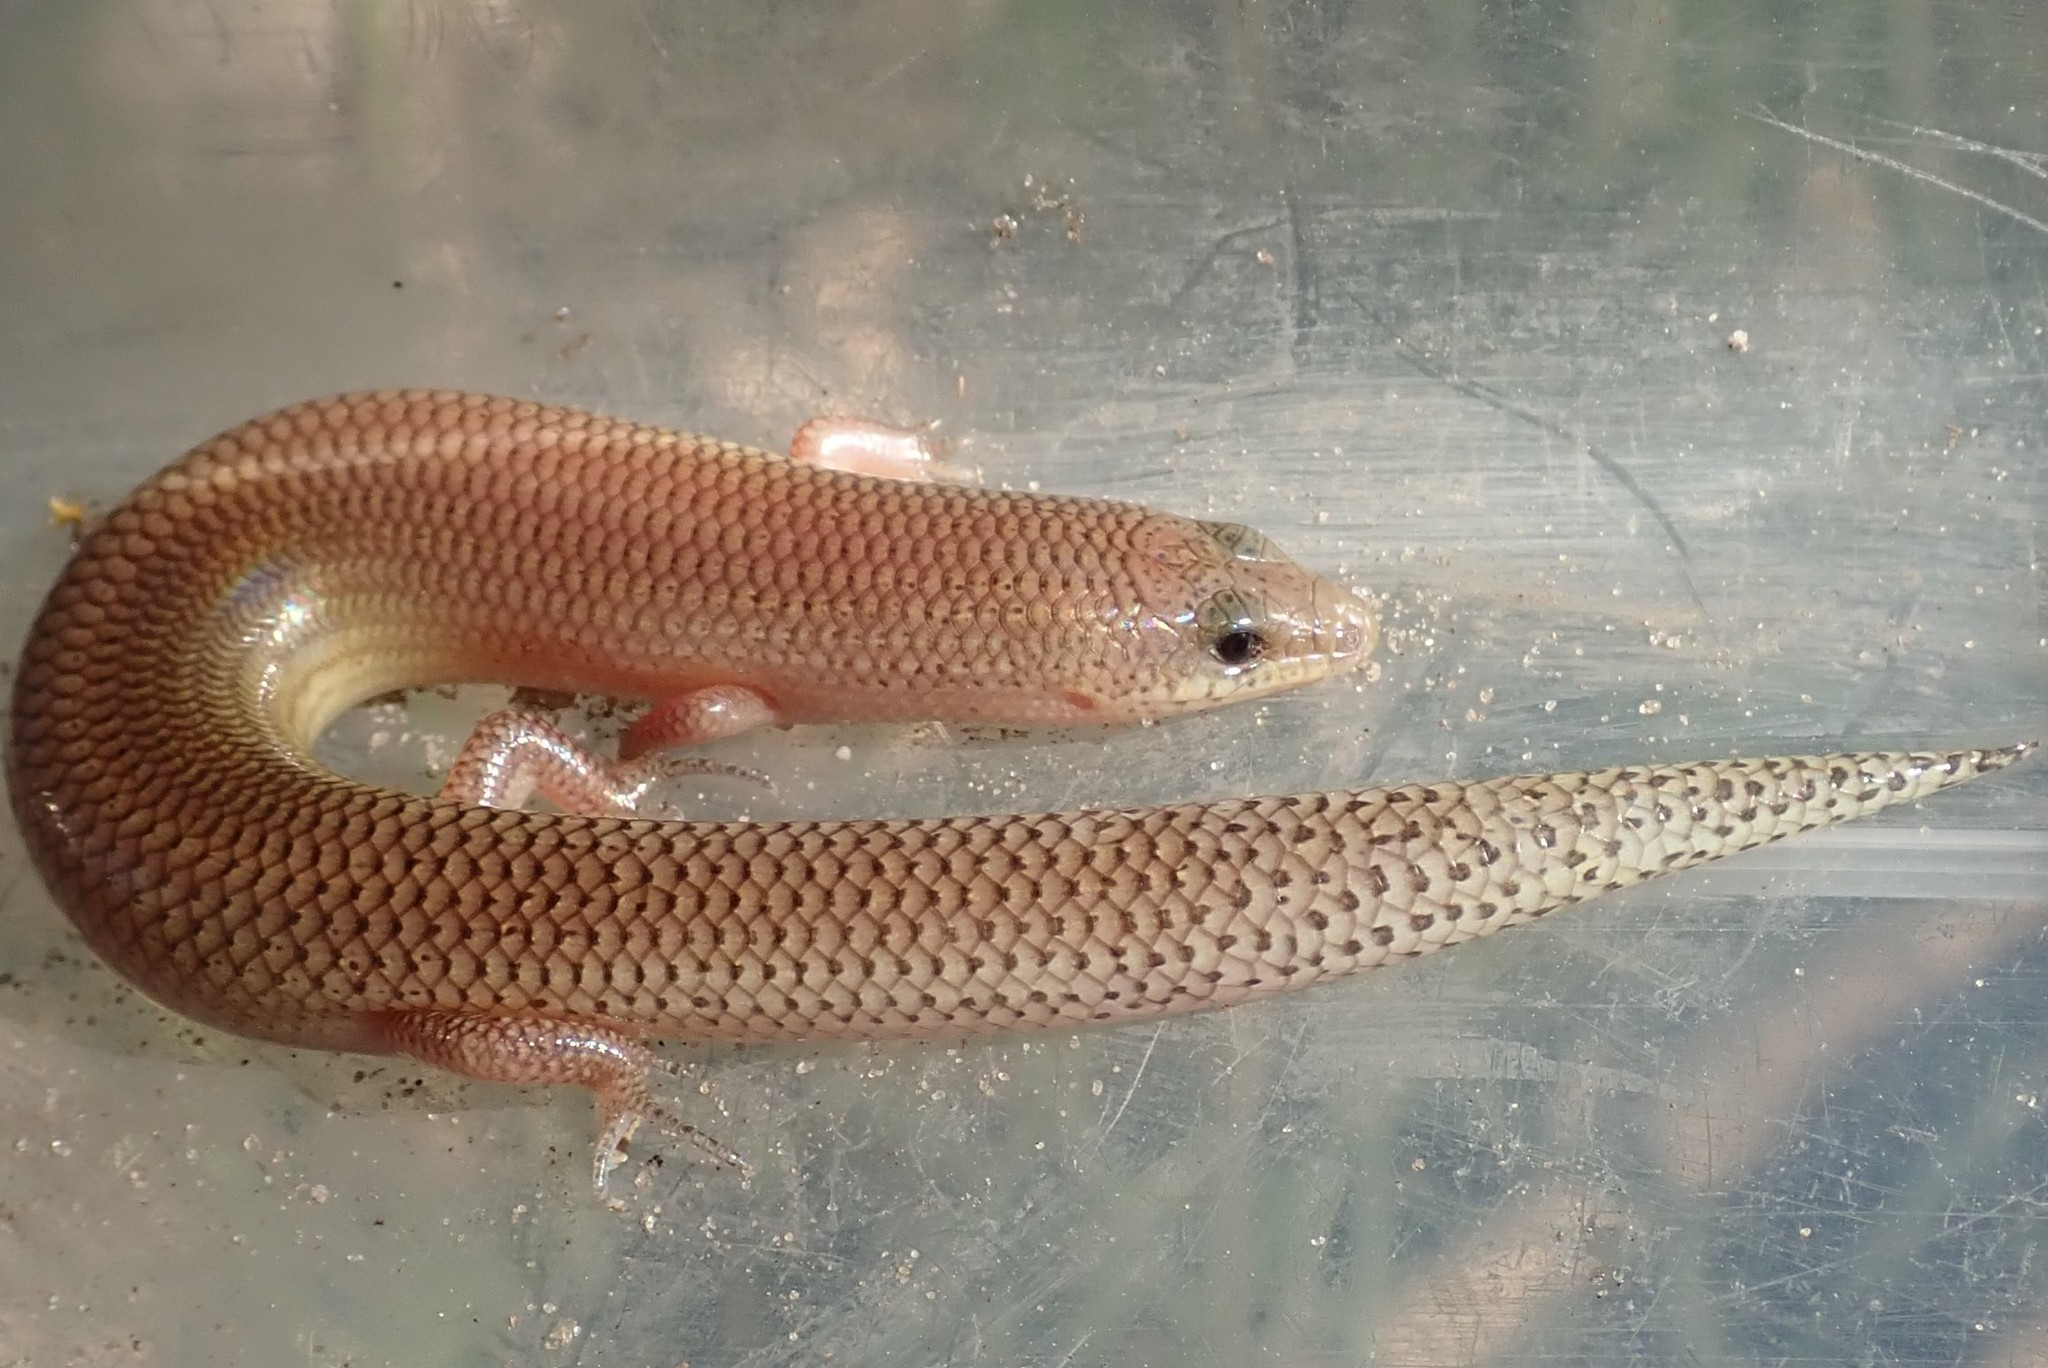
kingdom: Animalia
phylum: Chordata
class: Squamata
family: Scincidae
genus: Mochlus
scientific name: Mochlus sundevallii
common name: Peters' eyelid skink
